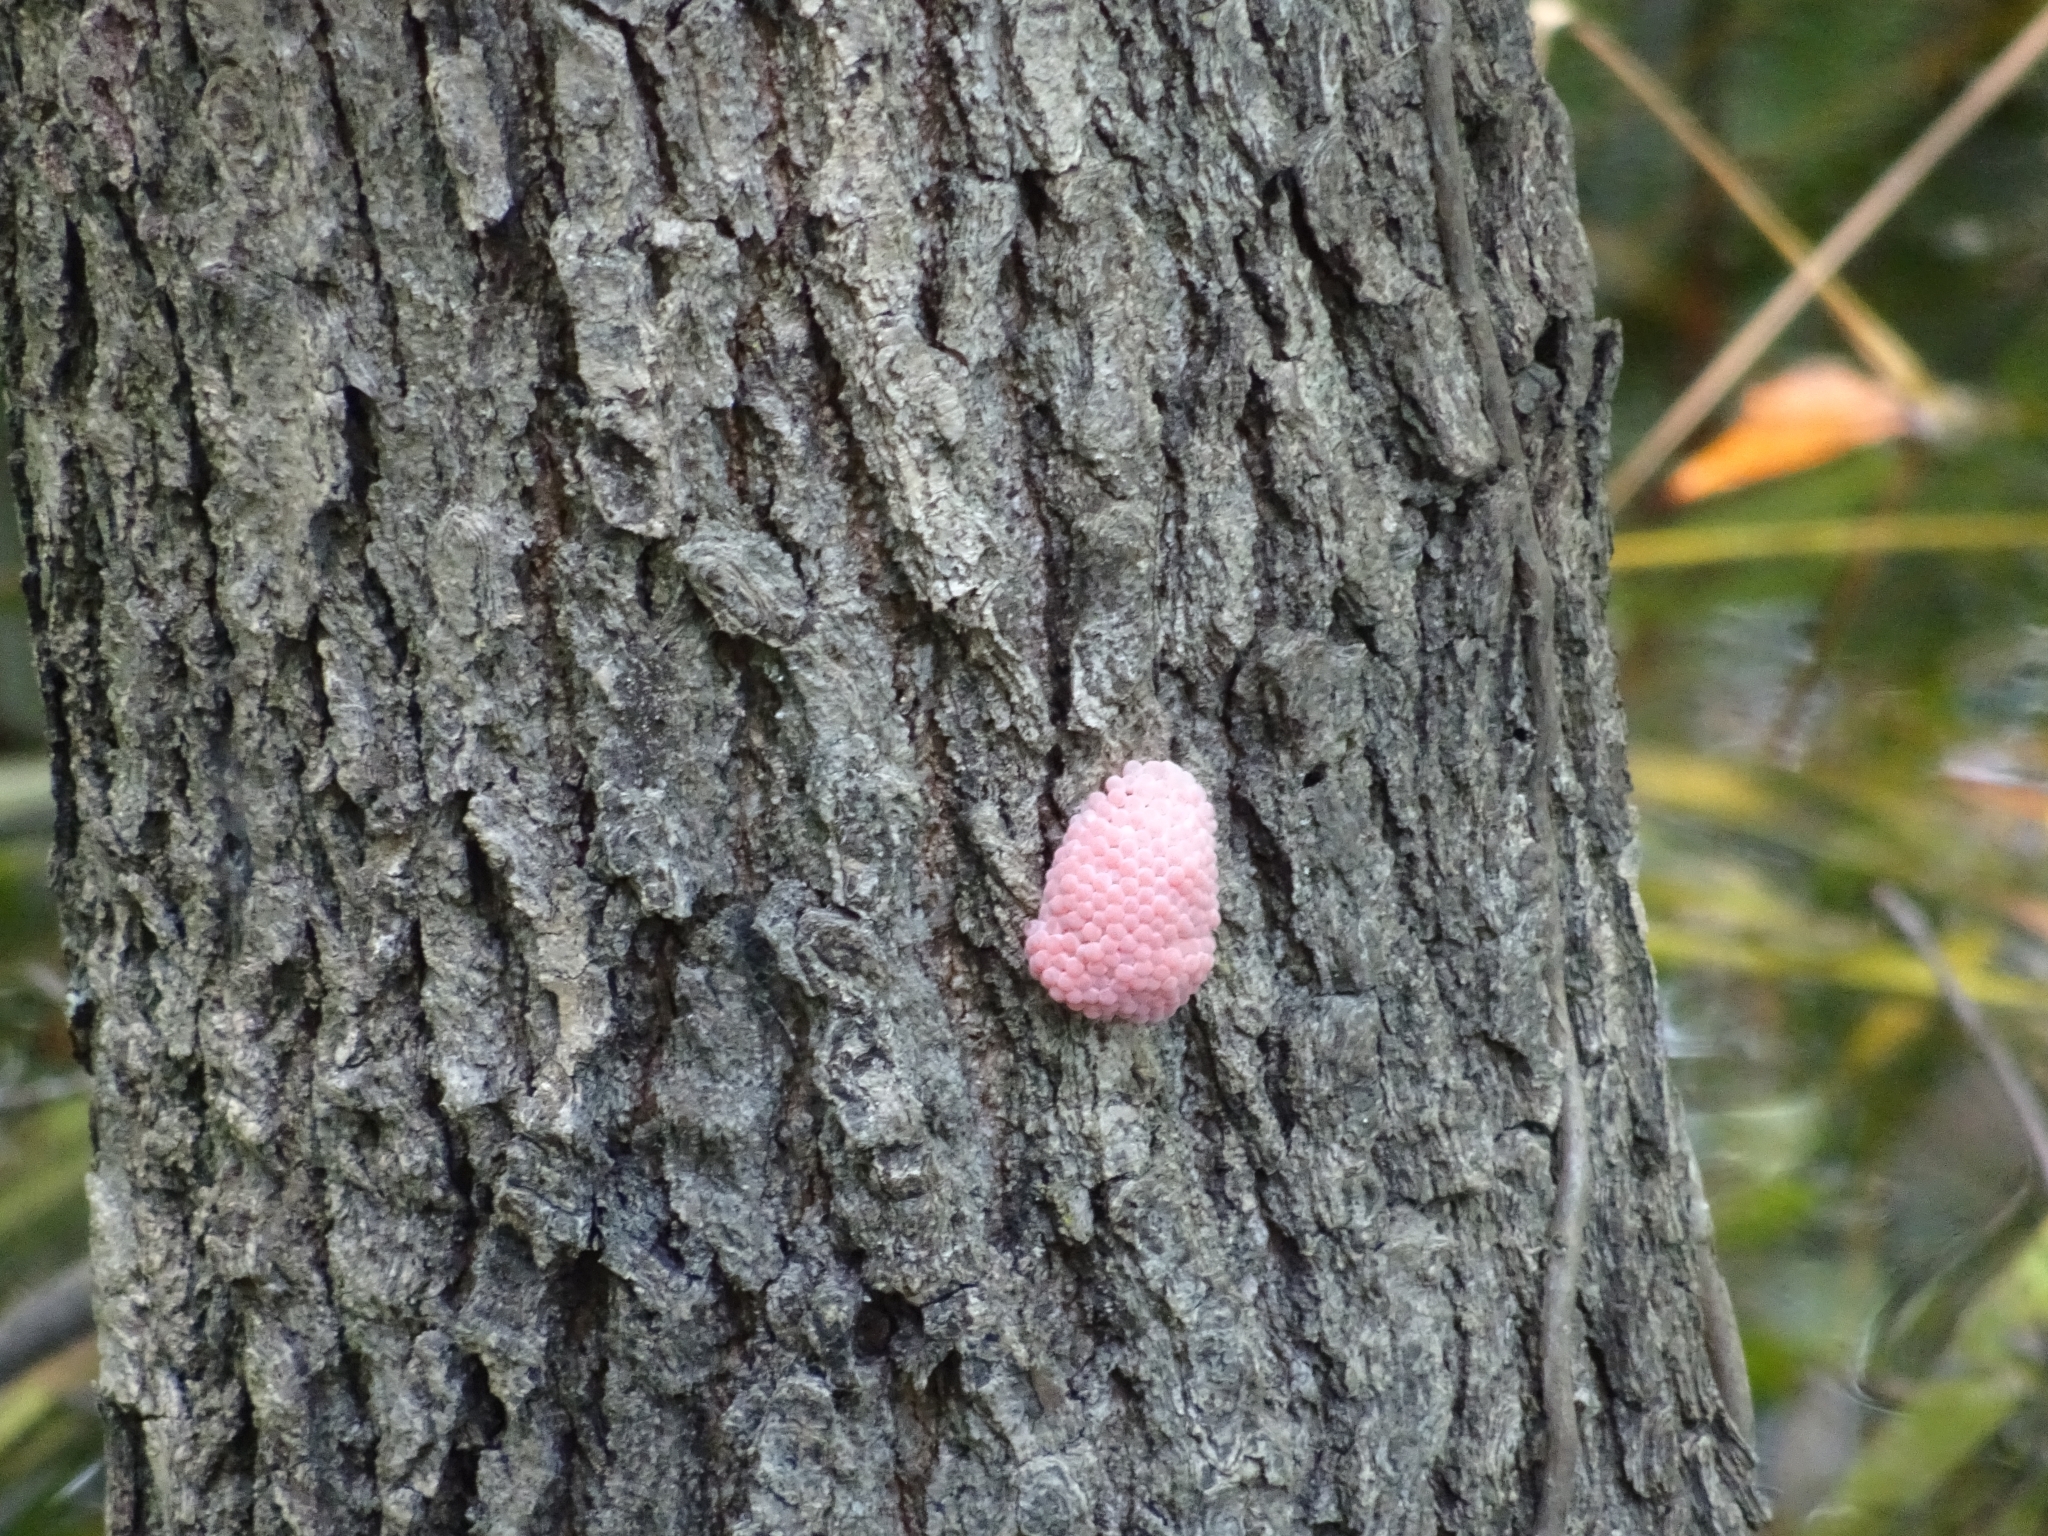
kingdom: Animalia
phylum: Mollusca
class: Gastropoda
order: Architaenioglossa
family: Ampullariidae
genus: Pomacea
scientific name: Pomacea maculata
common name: Giant applesnail
